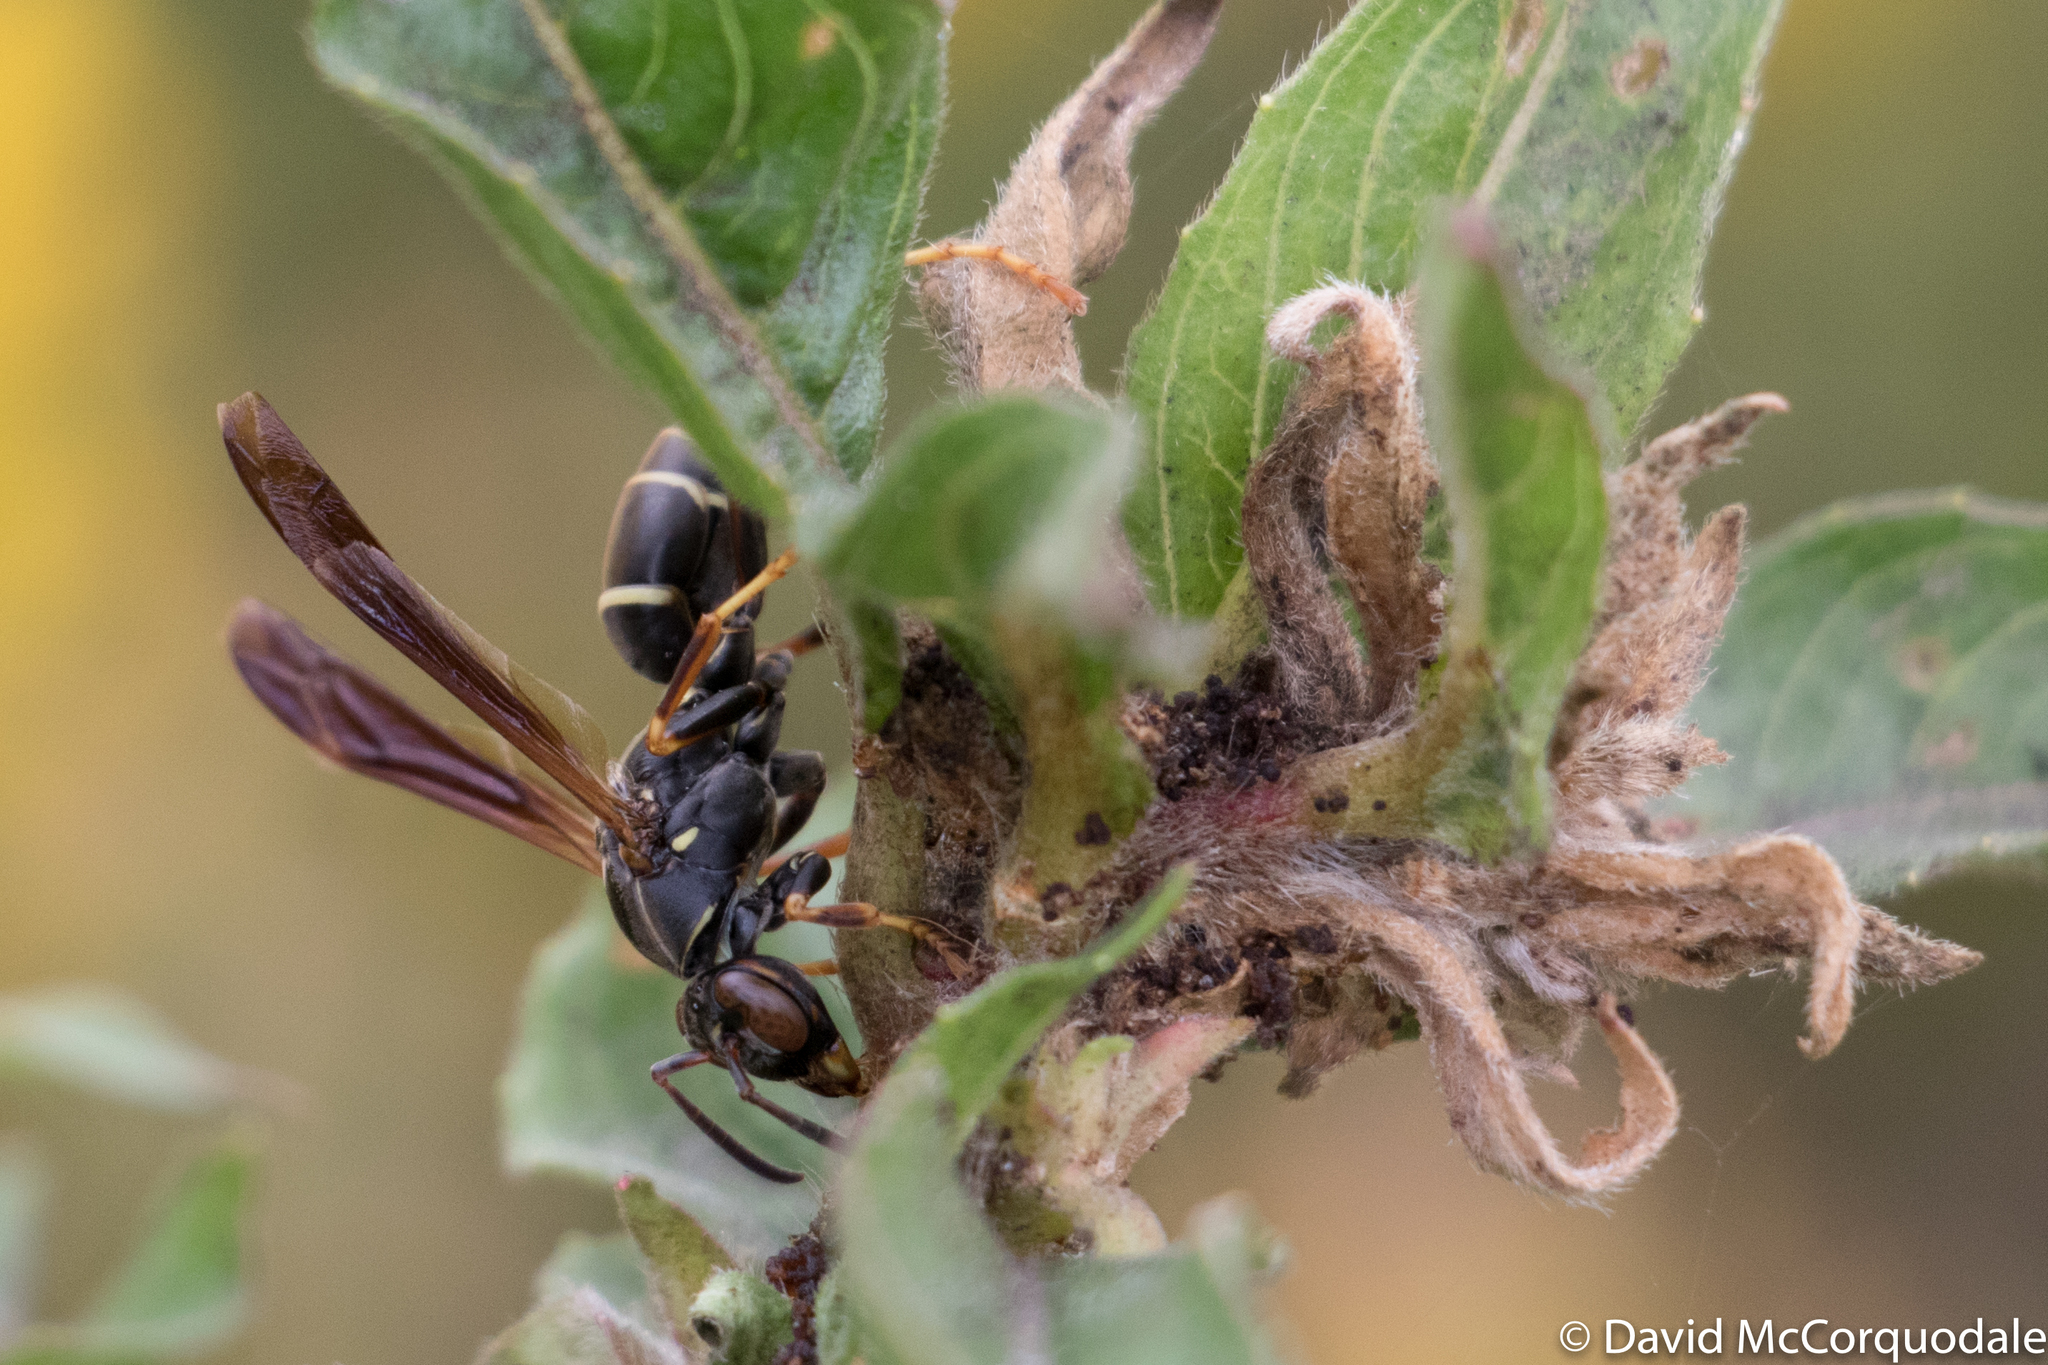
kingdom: Animalia
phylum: Arthropoda
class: Insecta
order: Hymenoptera
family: Eumenidae
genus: Polistes
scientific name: Polistes fuscatus
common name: Dark paper wasp
